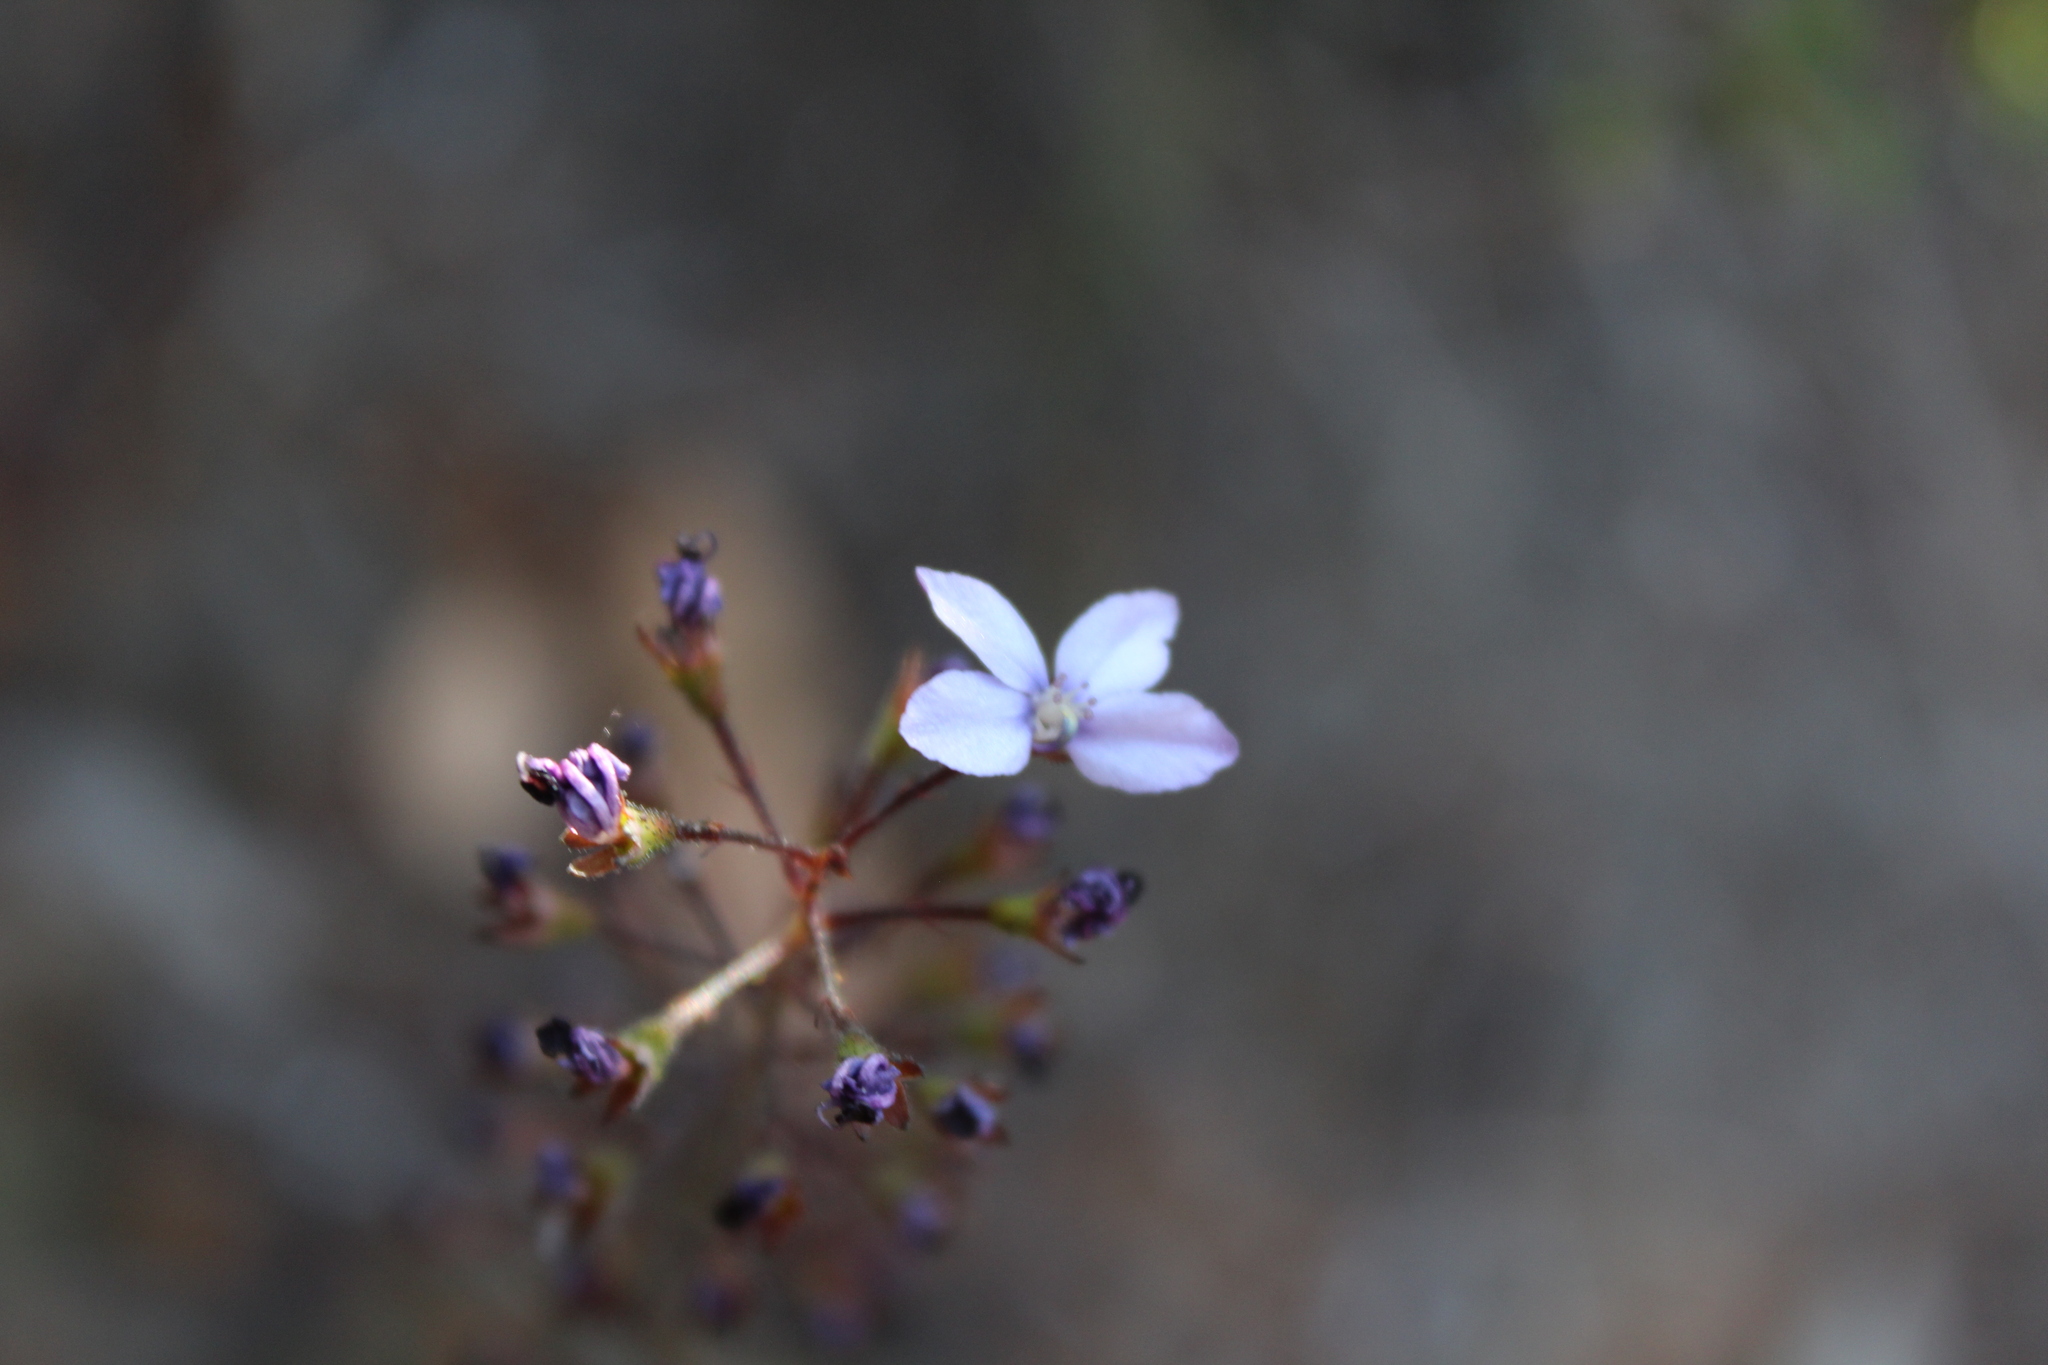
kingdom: Plantae
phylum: Tracheophyta
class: Magnoliopsida
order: Asterales
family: Stylidiaceae
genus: Stylidium
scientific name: Stylidium amoenum
